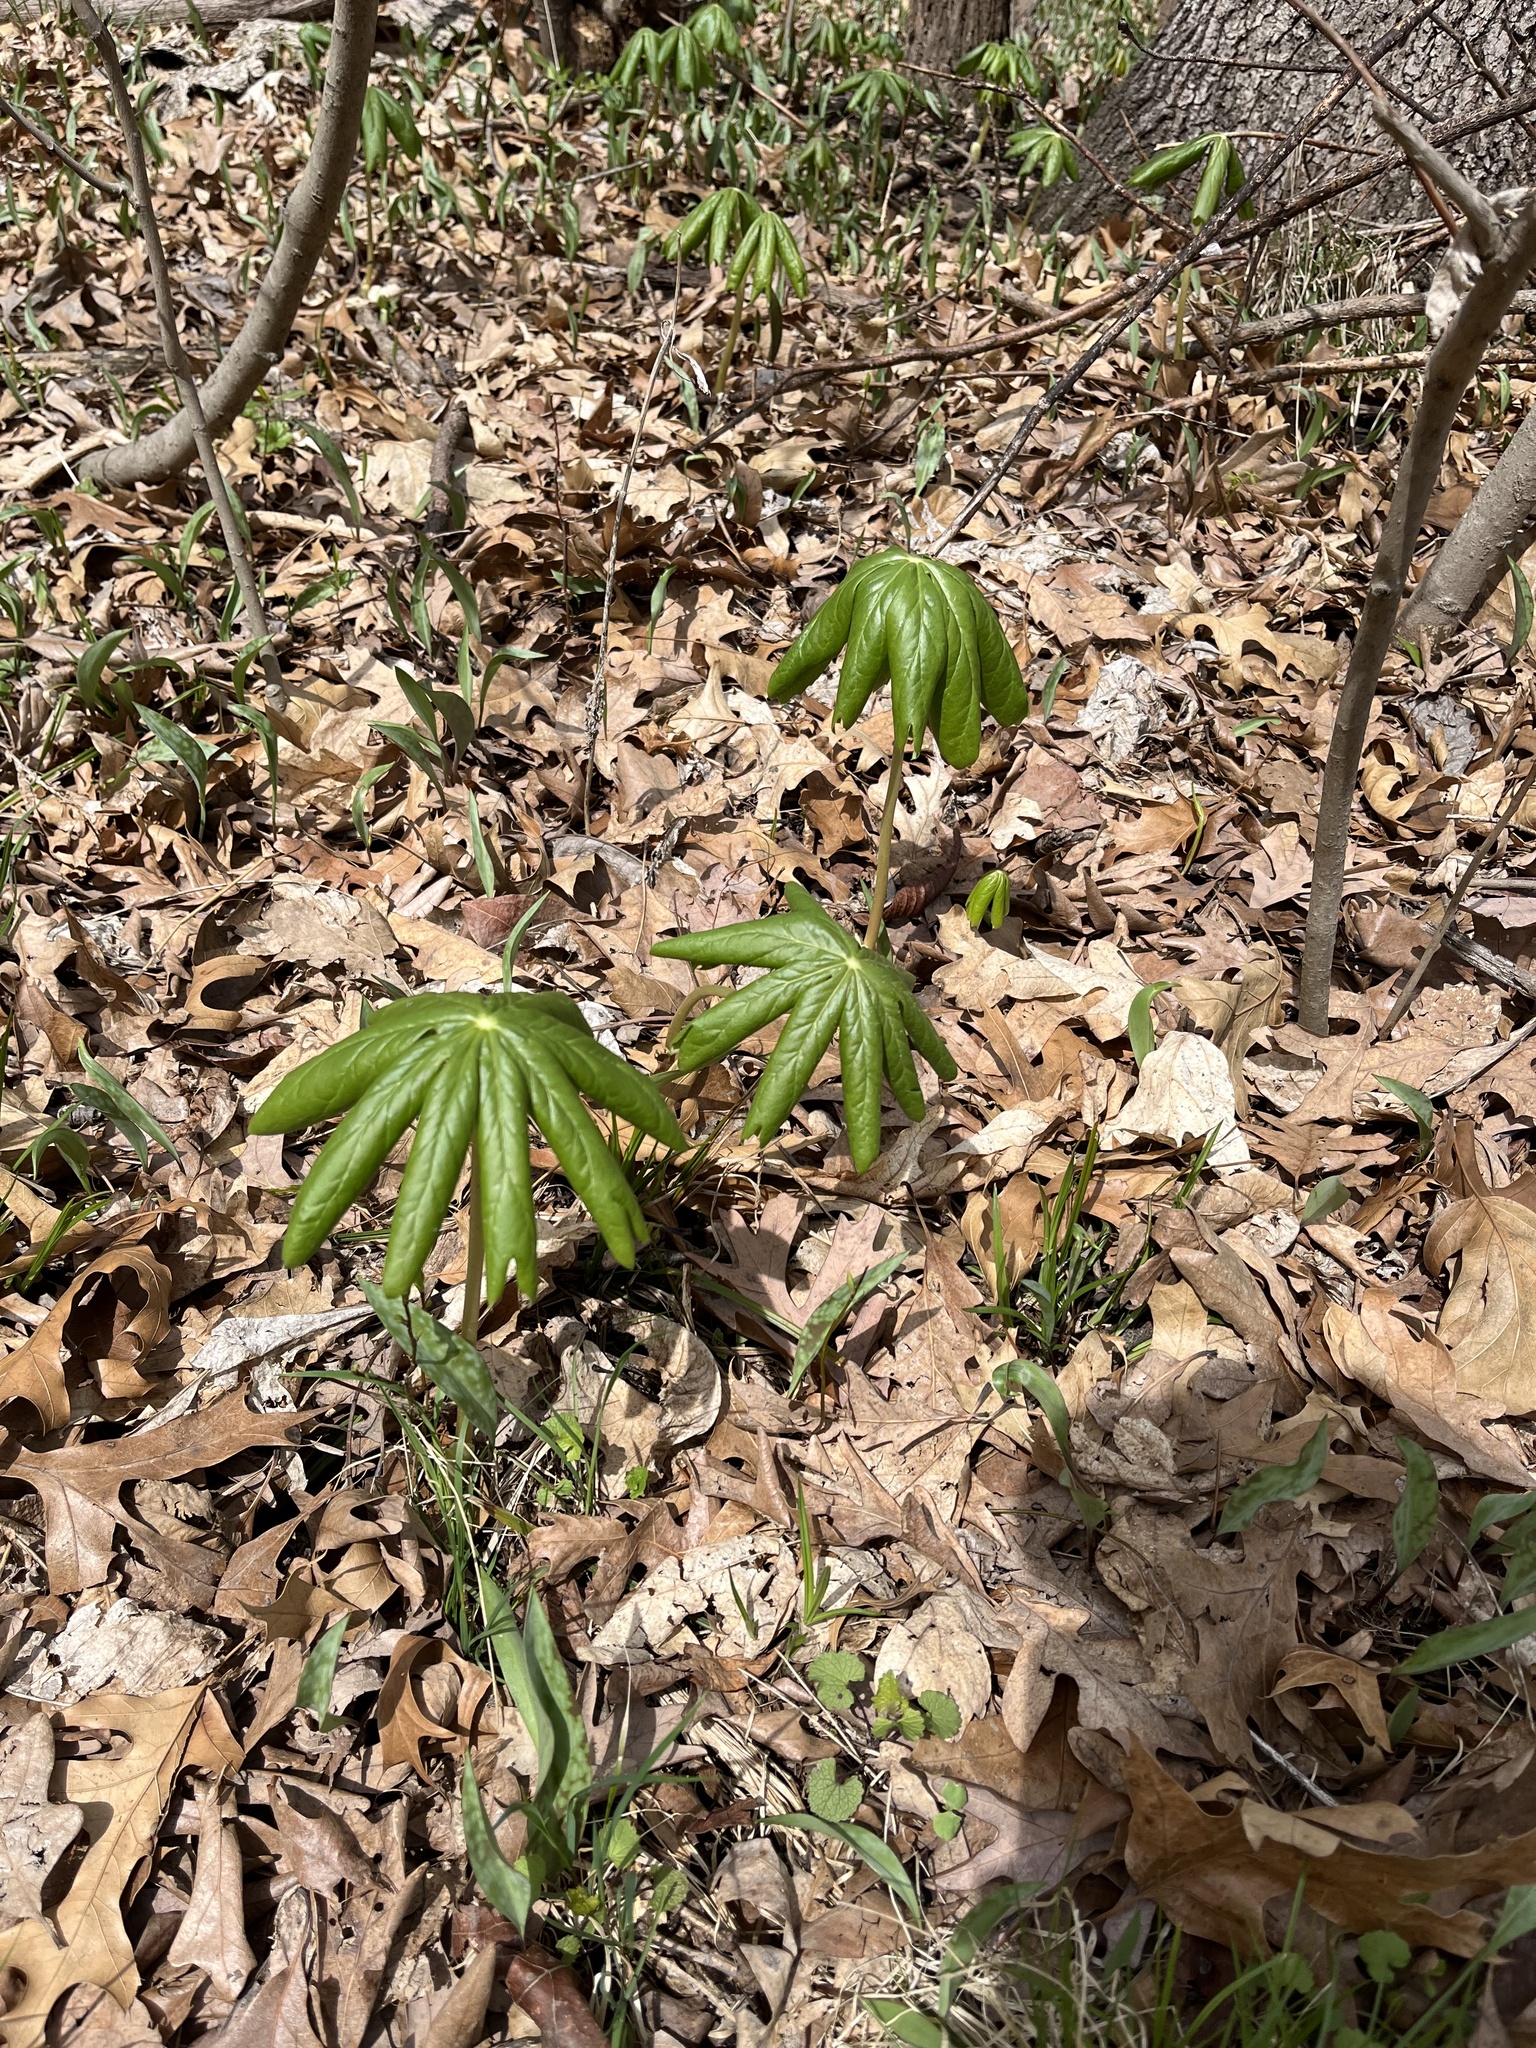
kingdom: Plantae
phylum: Tracheophyta
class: Magnoliopsida
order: Ranunculales
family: Berberidaceae
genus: Podophyllum
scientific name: Podophyllum peltatum
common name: Wild mandrake
